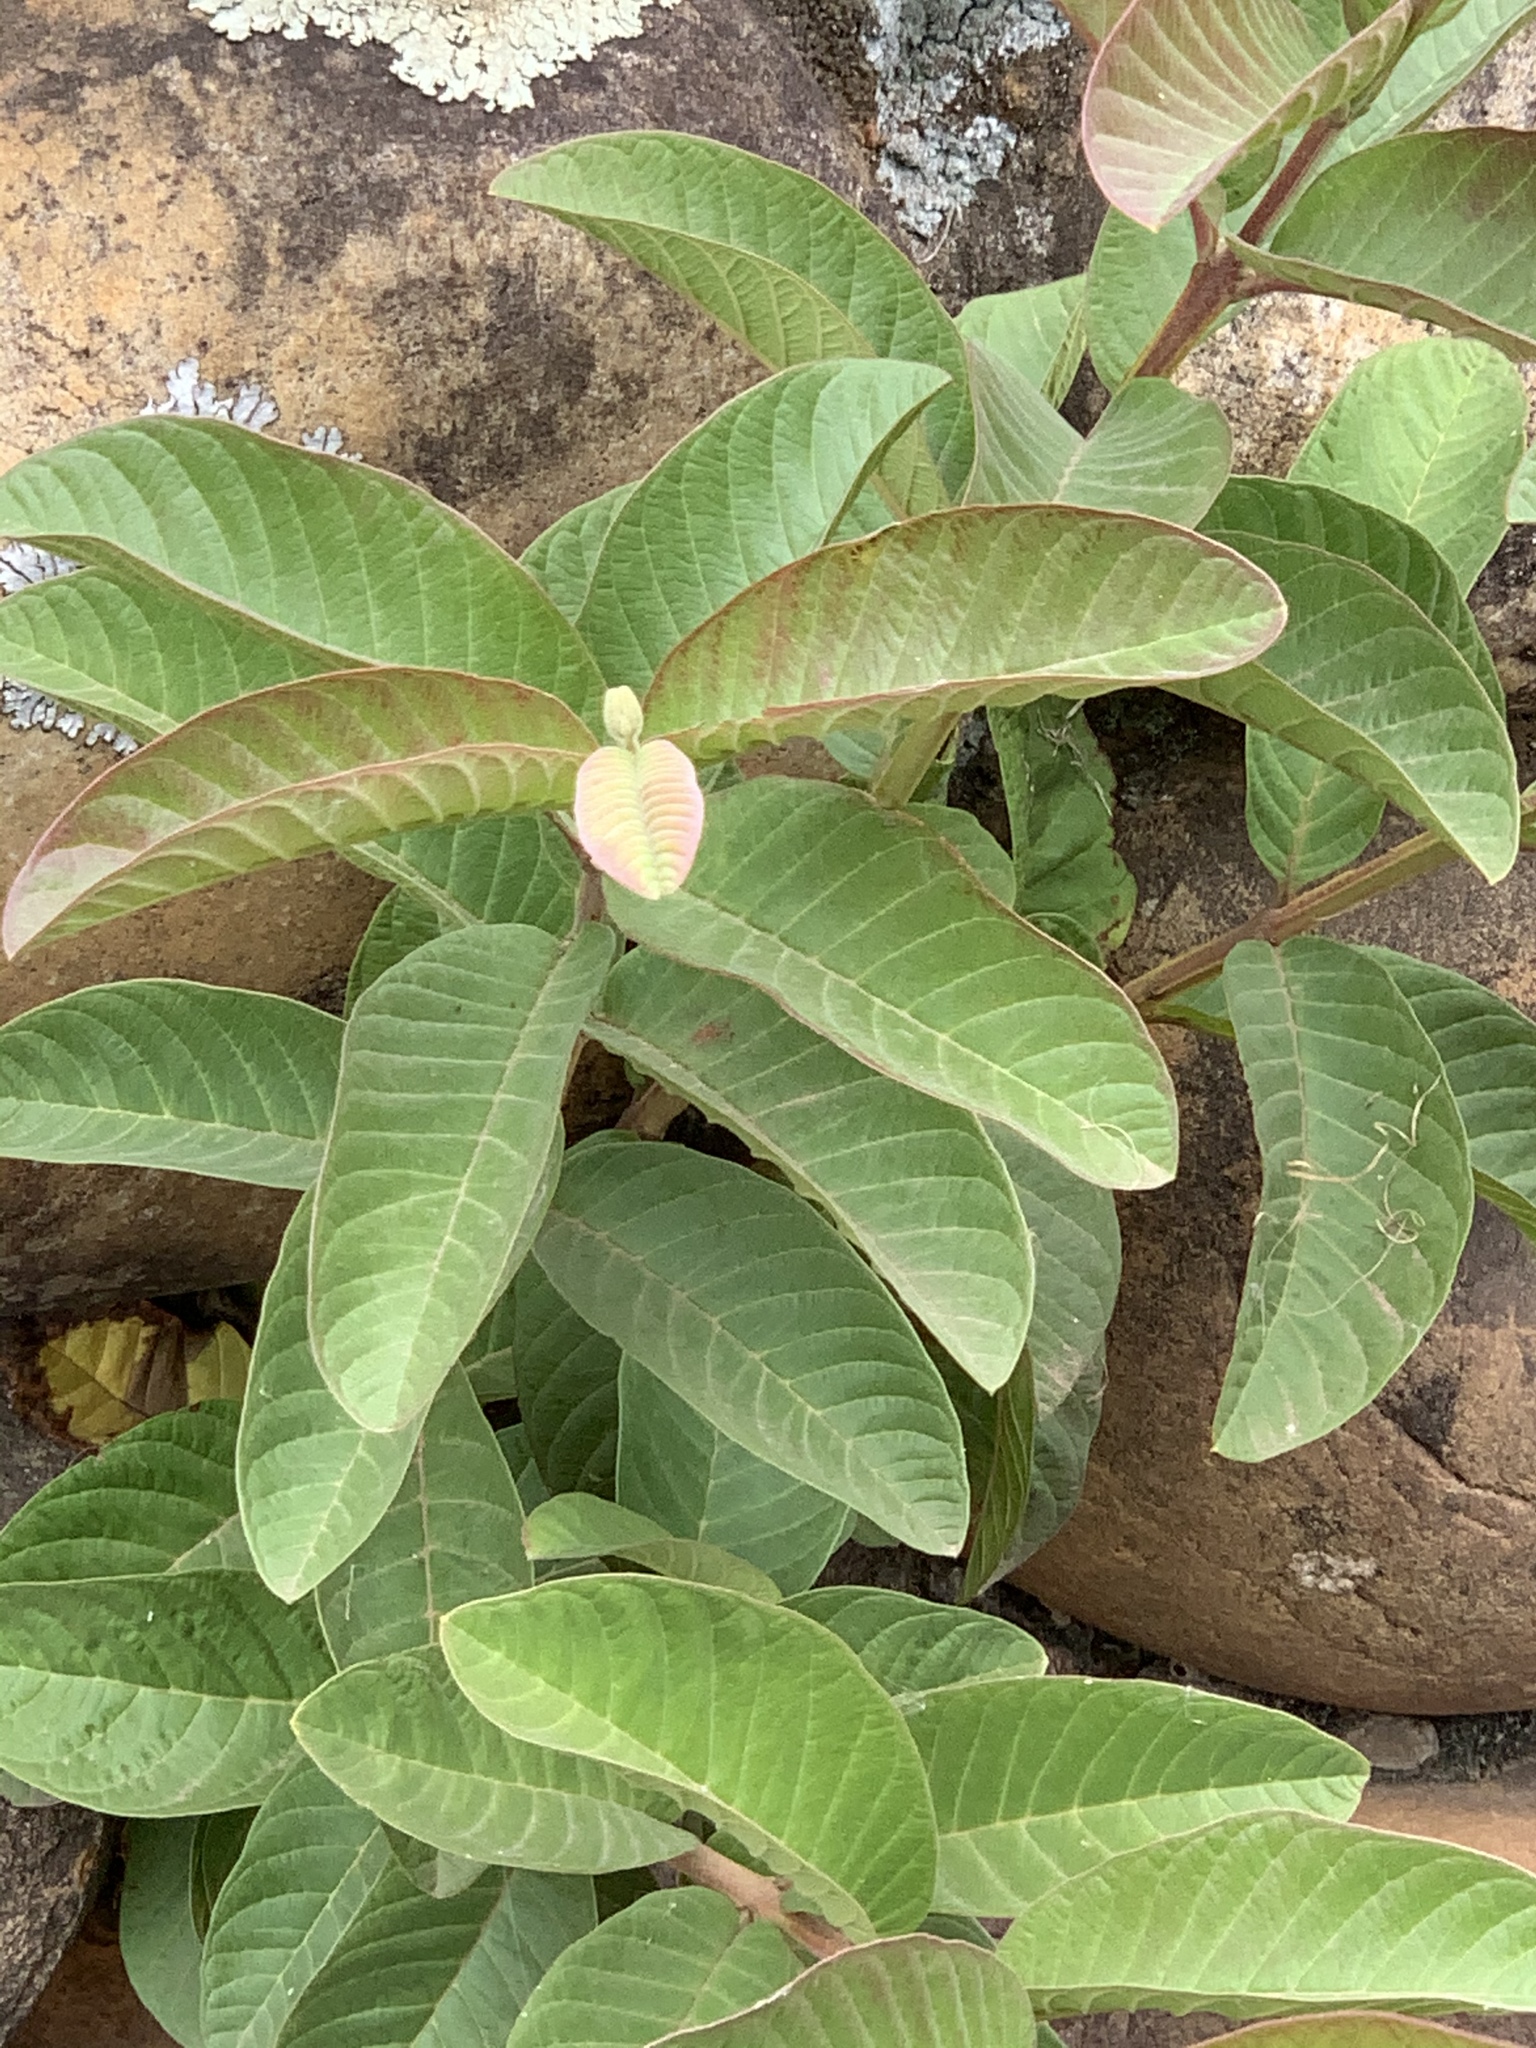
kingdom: Plantae
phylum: Tracheophyta
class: Magnoliopsida
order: Myrtales
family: Myrtaceae
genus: Psidium
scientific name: Psidium guajava
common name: Guava
